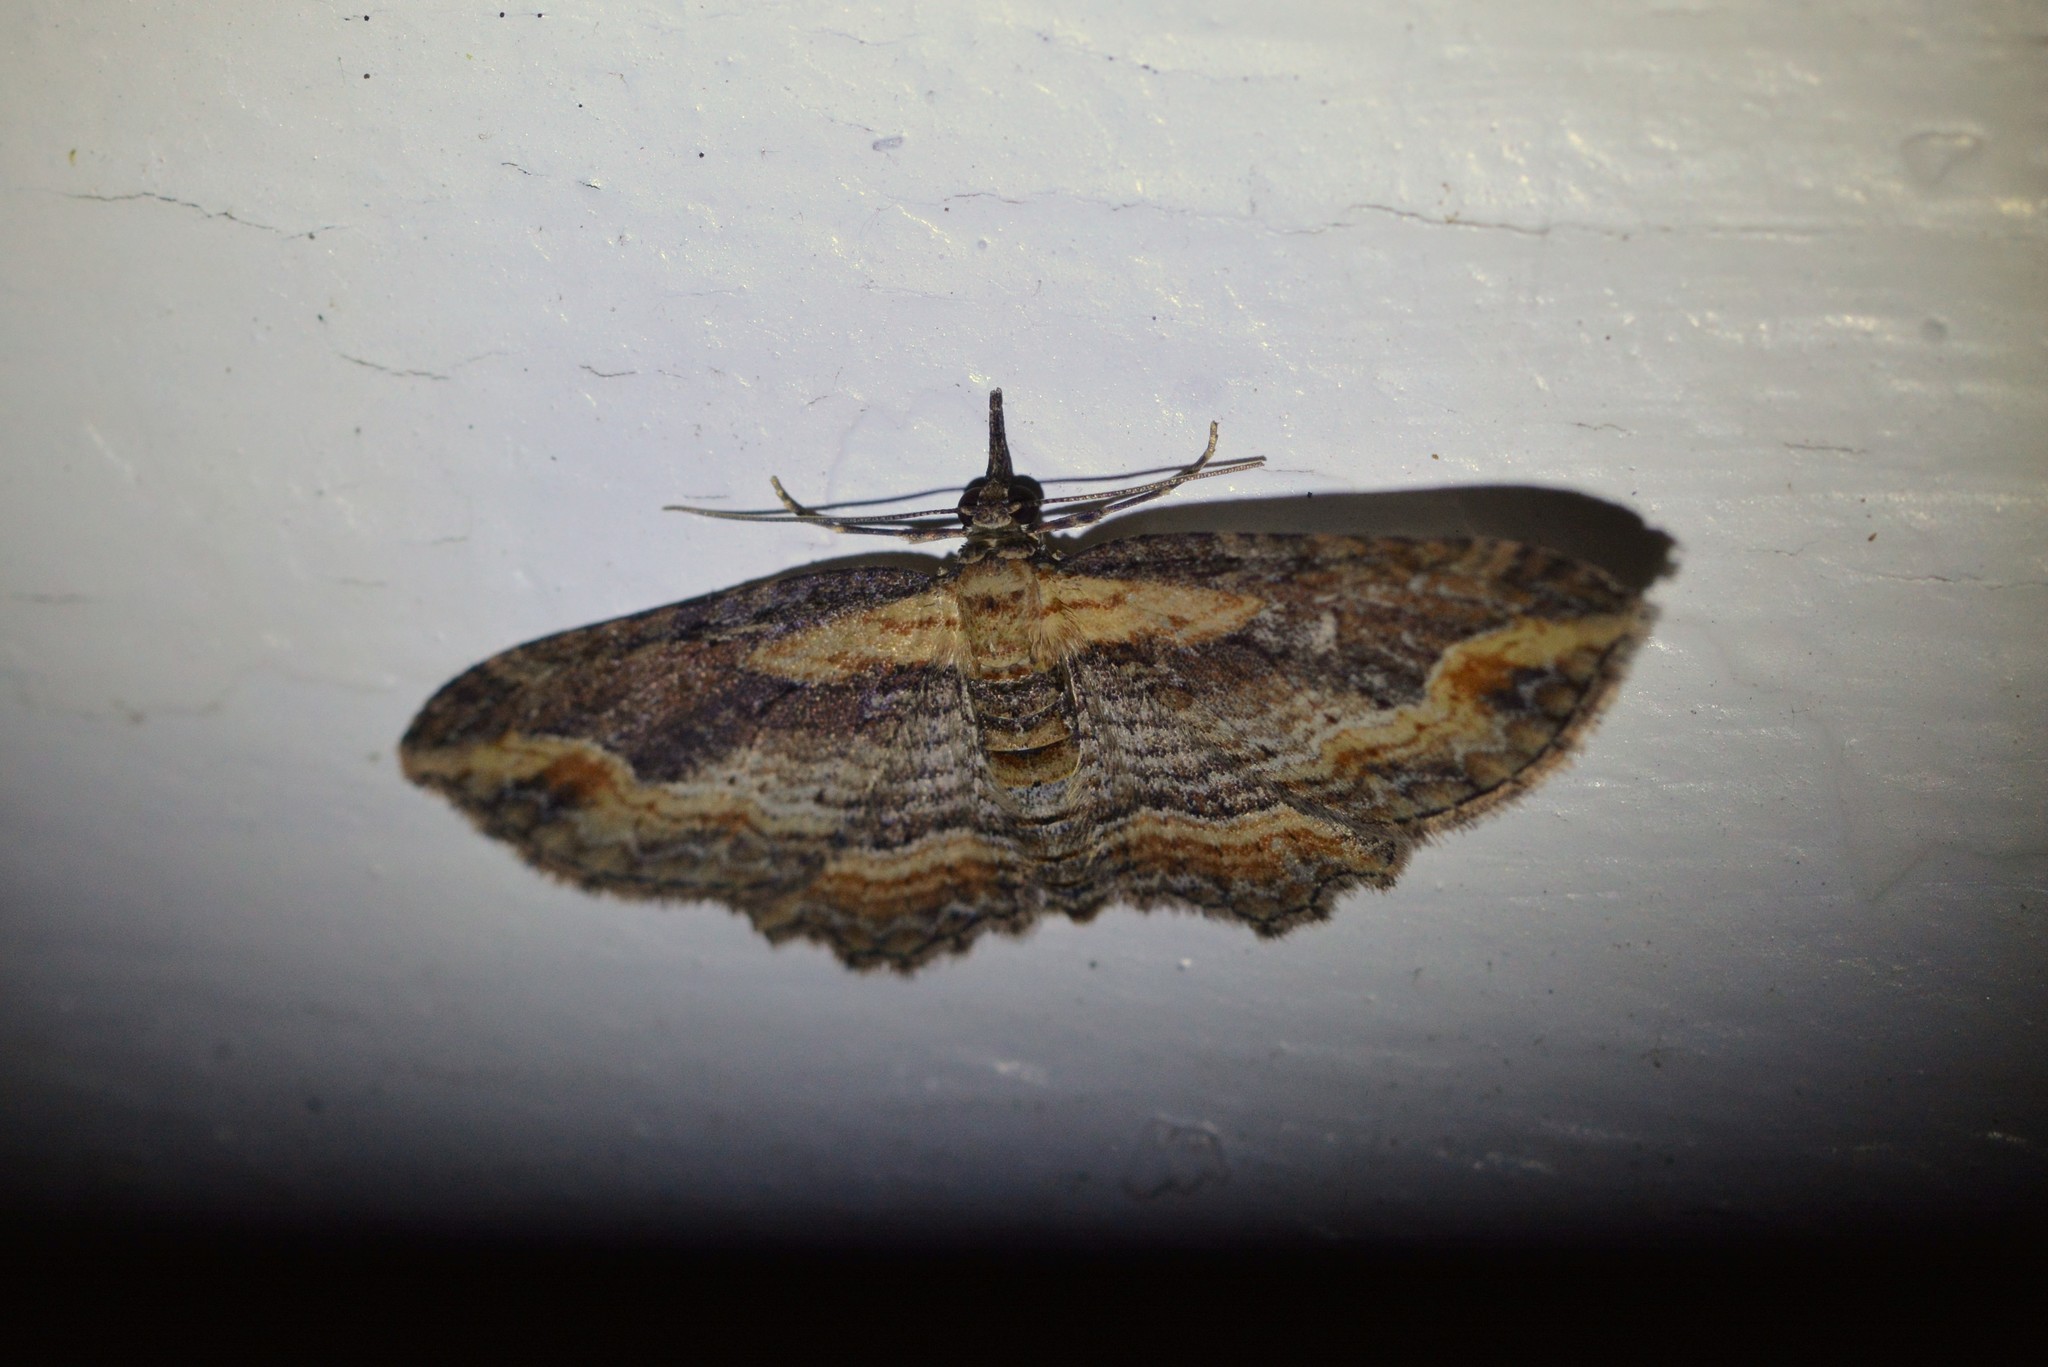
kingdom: Animalia
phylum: Arthropoda
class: Insecta
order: Lepidoptera
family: Geometridae
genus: Chloroclystis
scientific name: Chloroclystis filata
